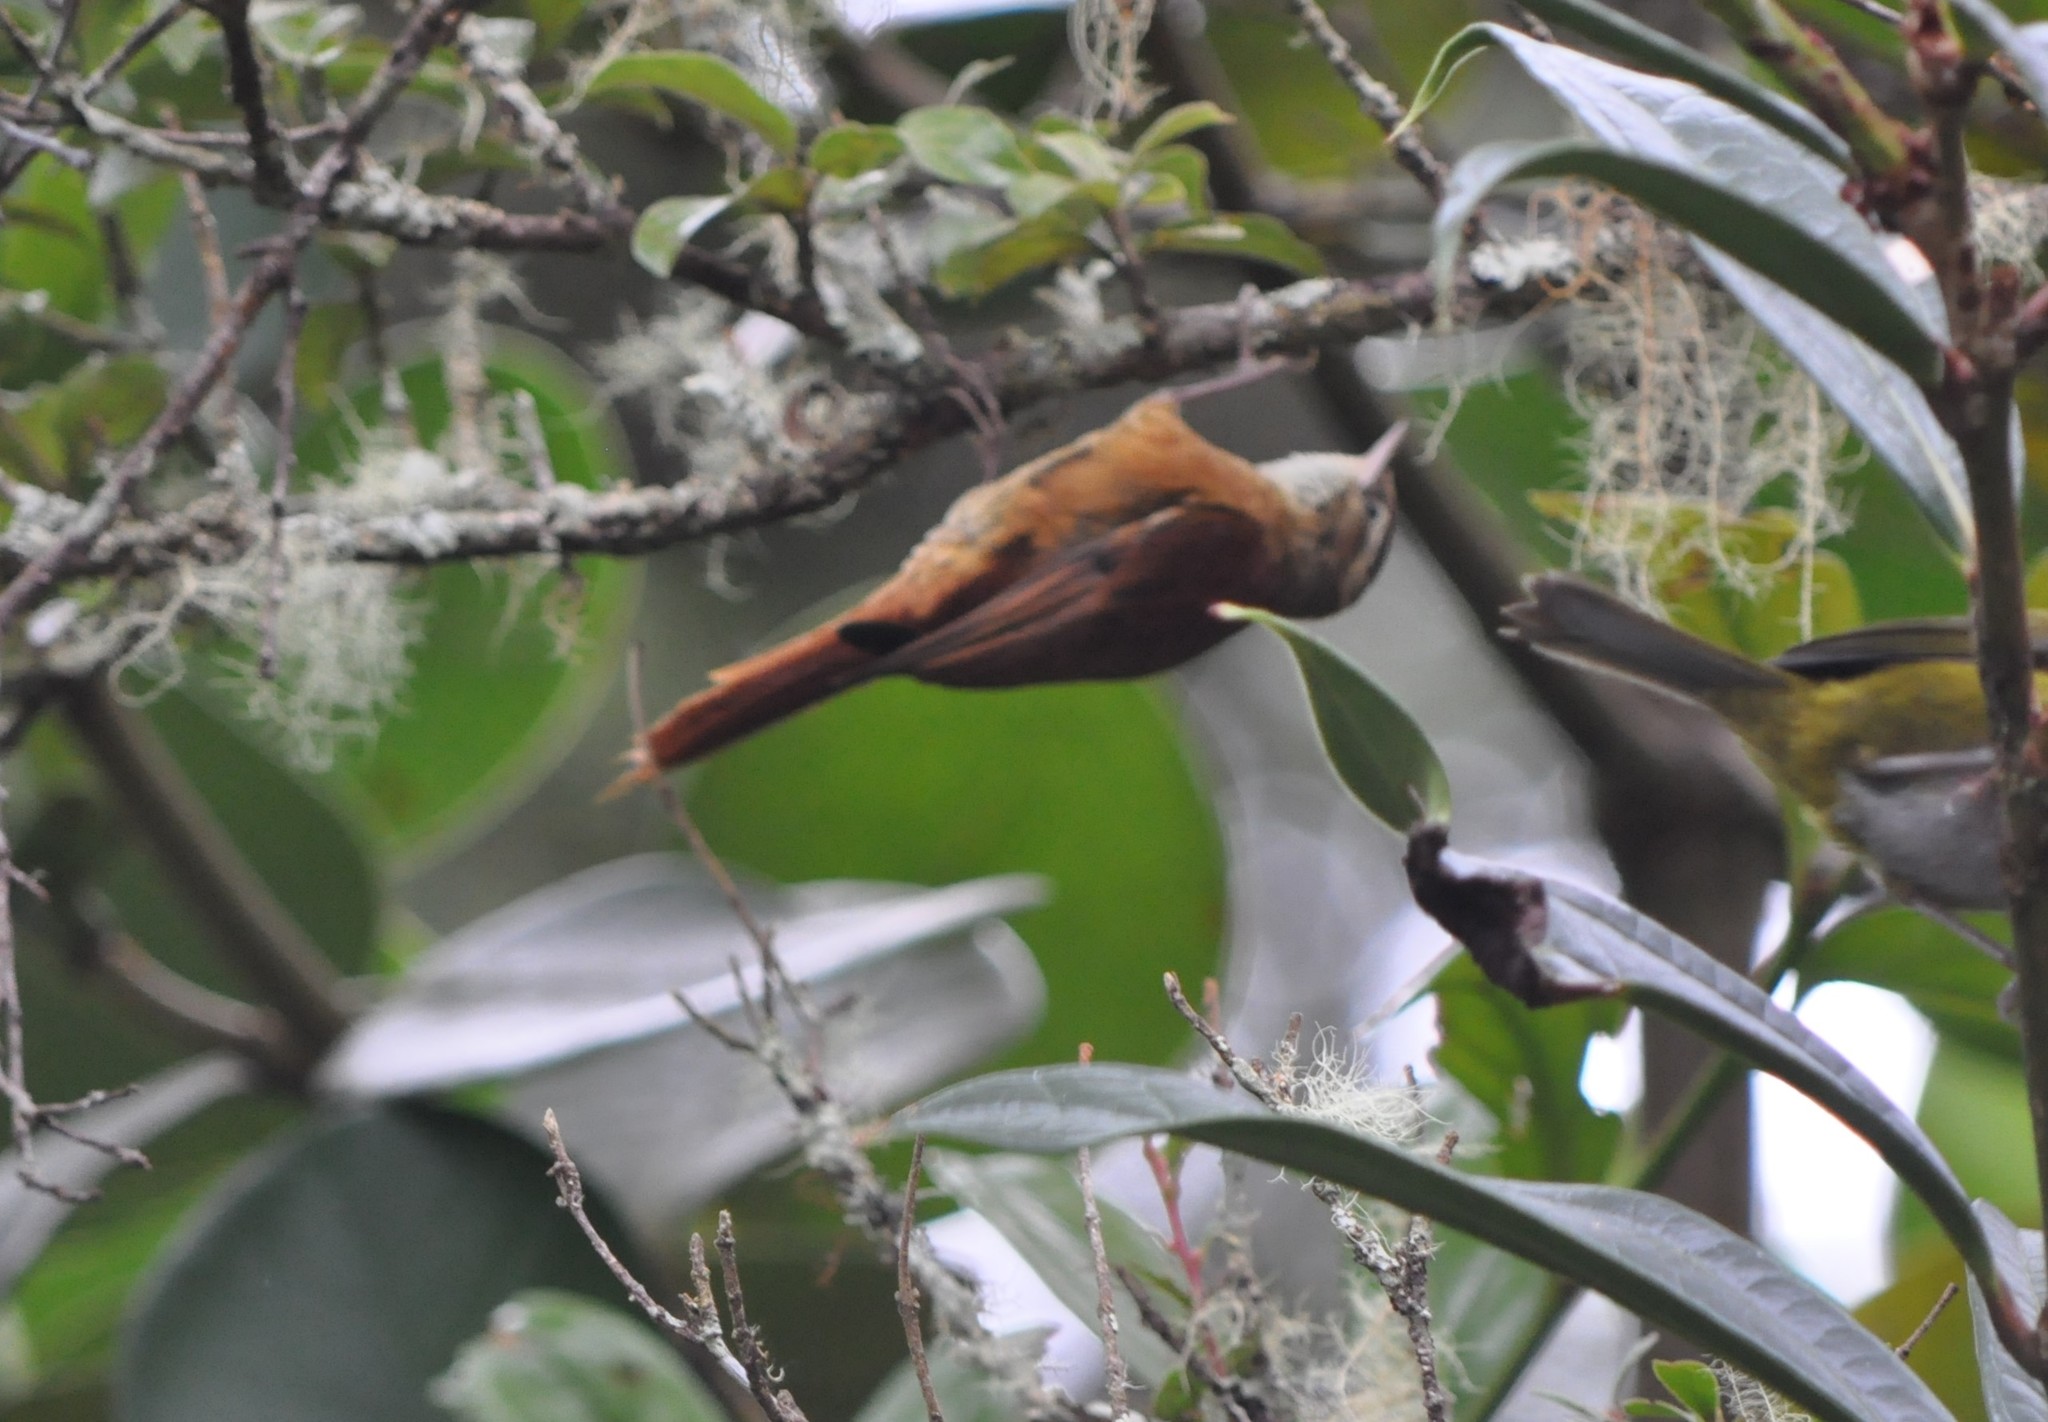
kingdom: Animalia
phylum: Chordata
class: Aves
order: Passeriformes
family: Furnariidae
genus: Margarornis
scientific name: Margarornis rubiginosus
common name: Ruddy treerunner
